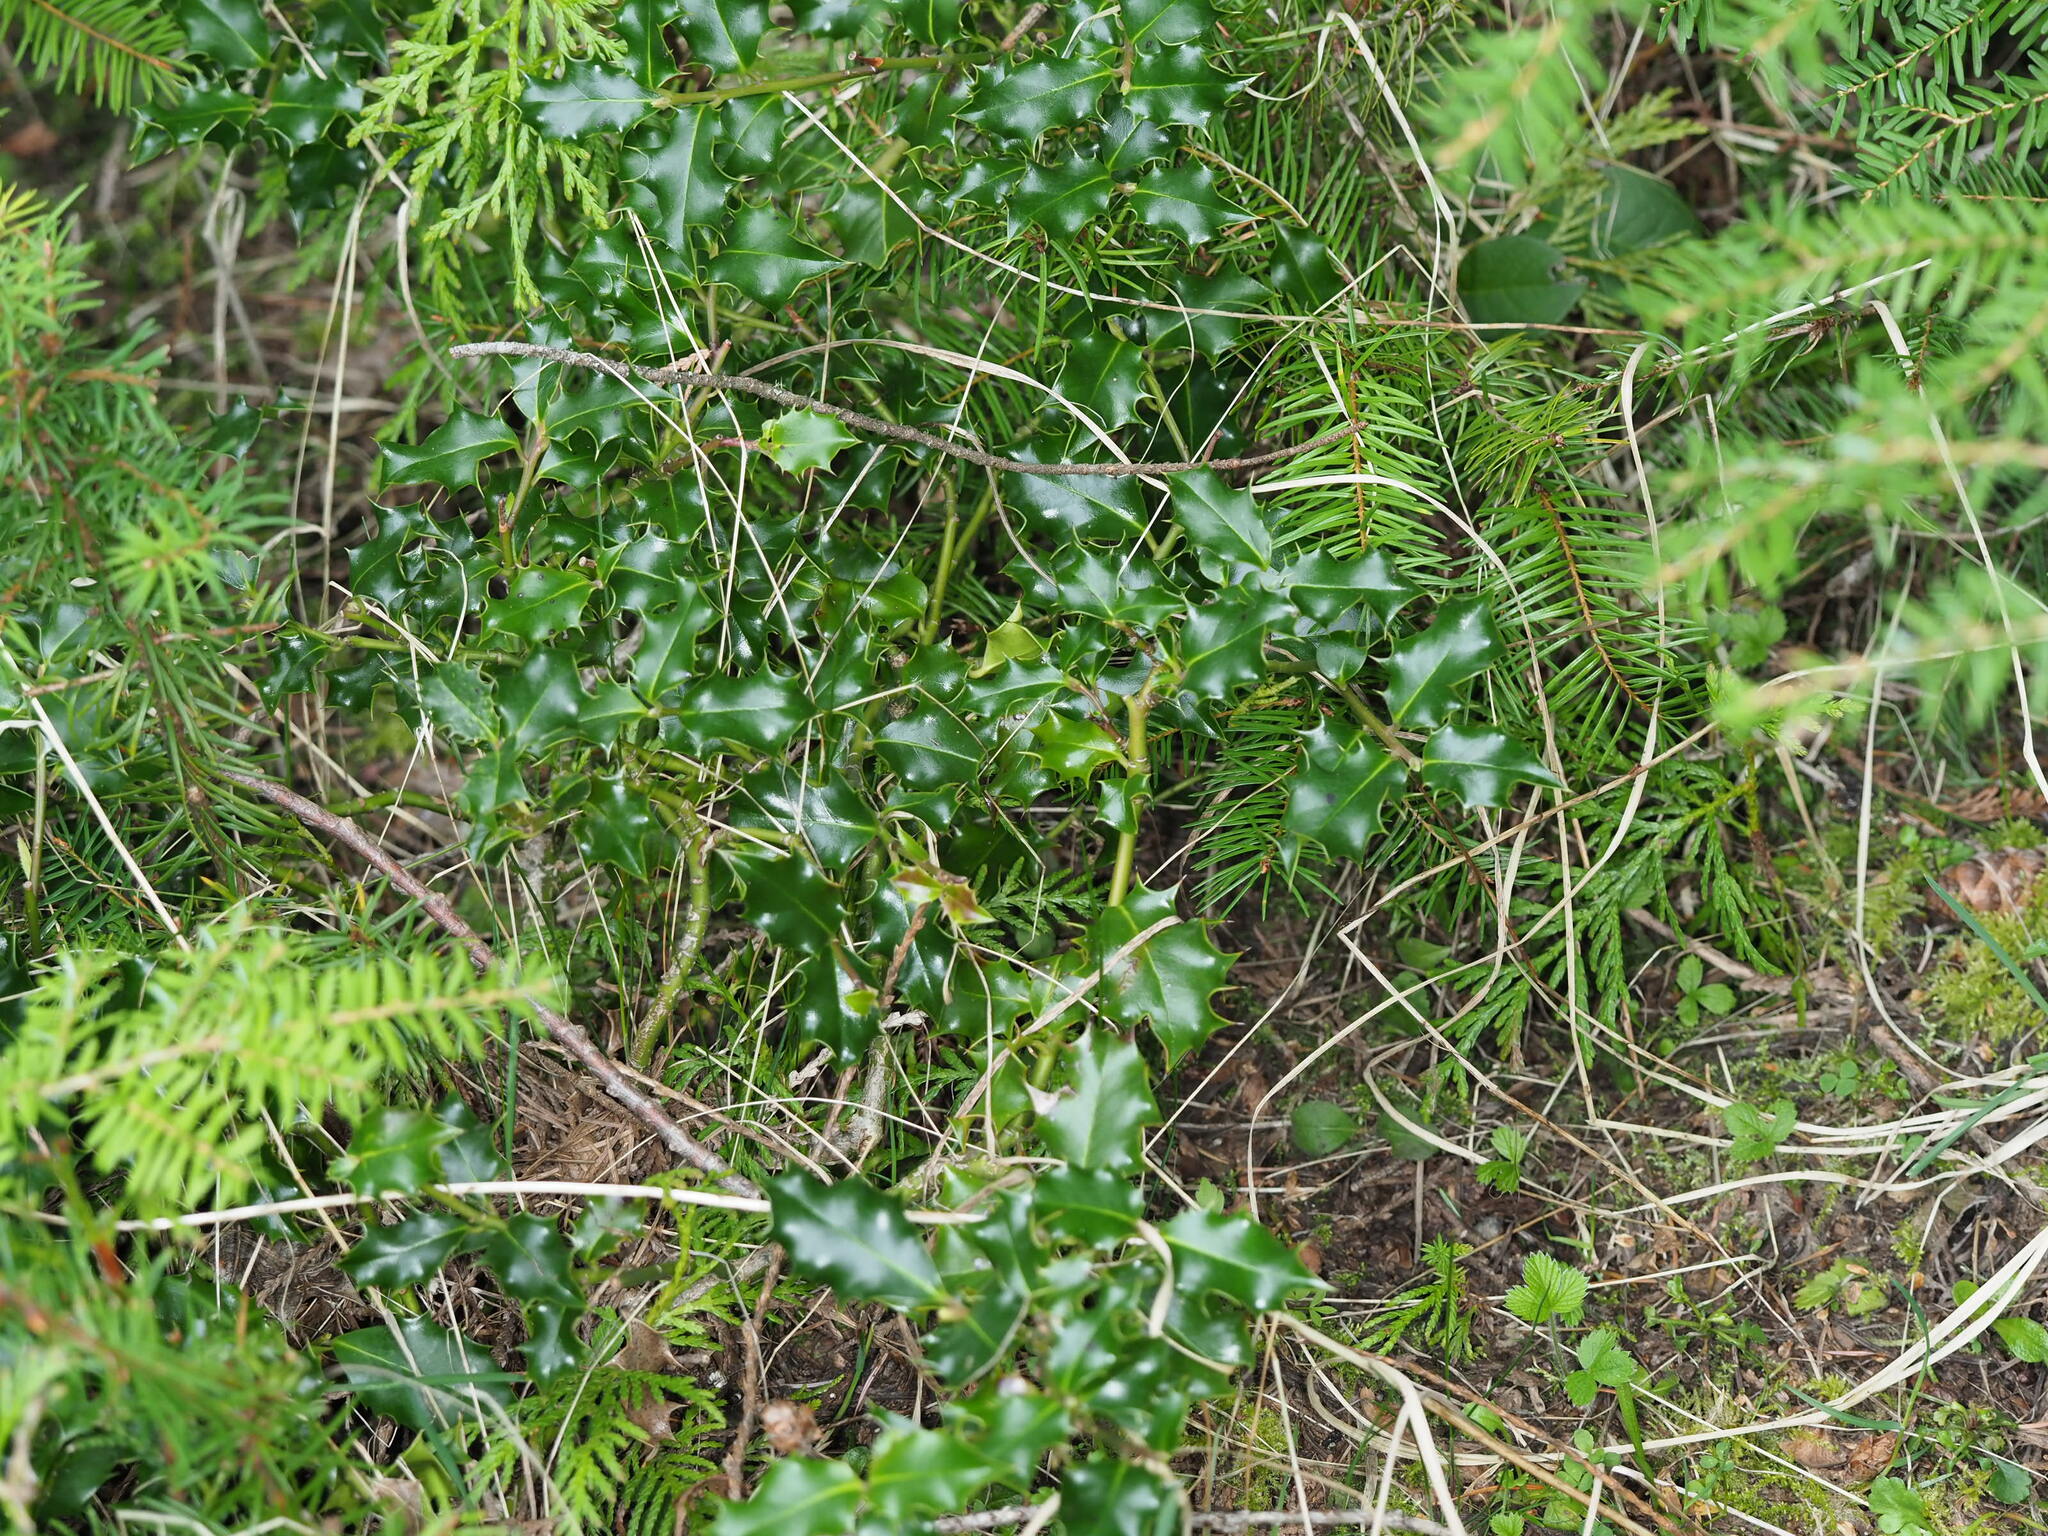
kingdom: Plantae
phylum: Tracheophyta
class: Magnoliopsida
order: Aquifoliales
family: Aquifoliaceae
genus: Ilex
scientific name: Ilex aquifolium
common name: English holly
